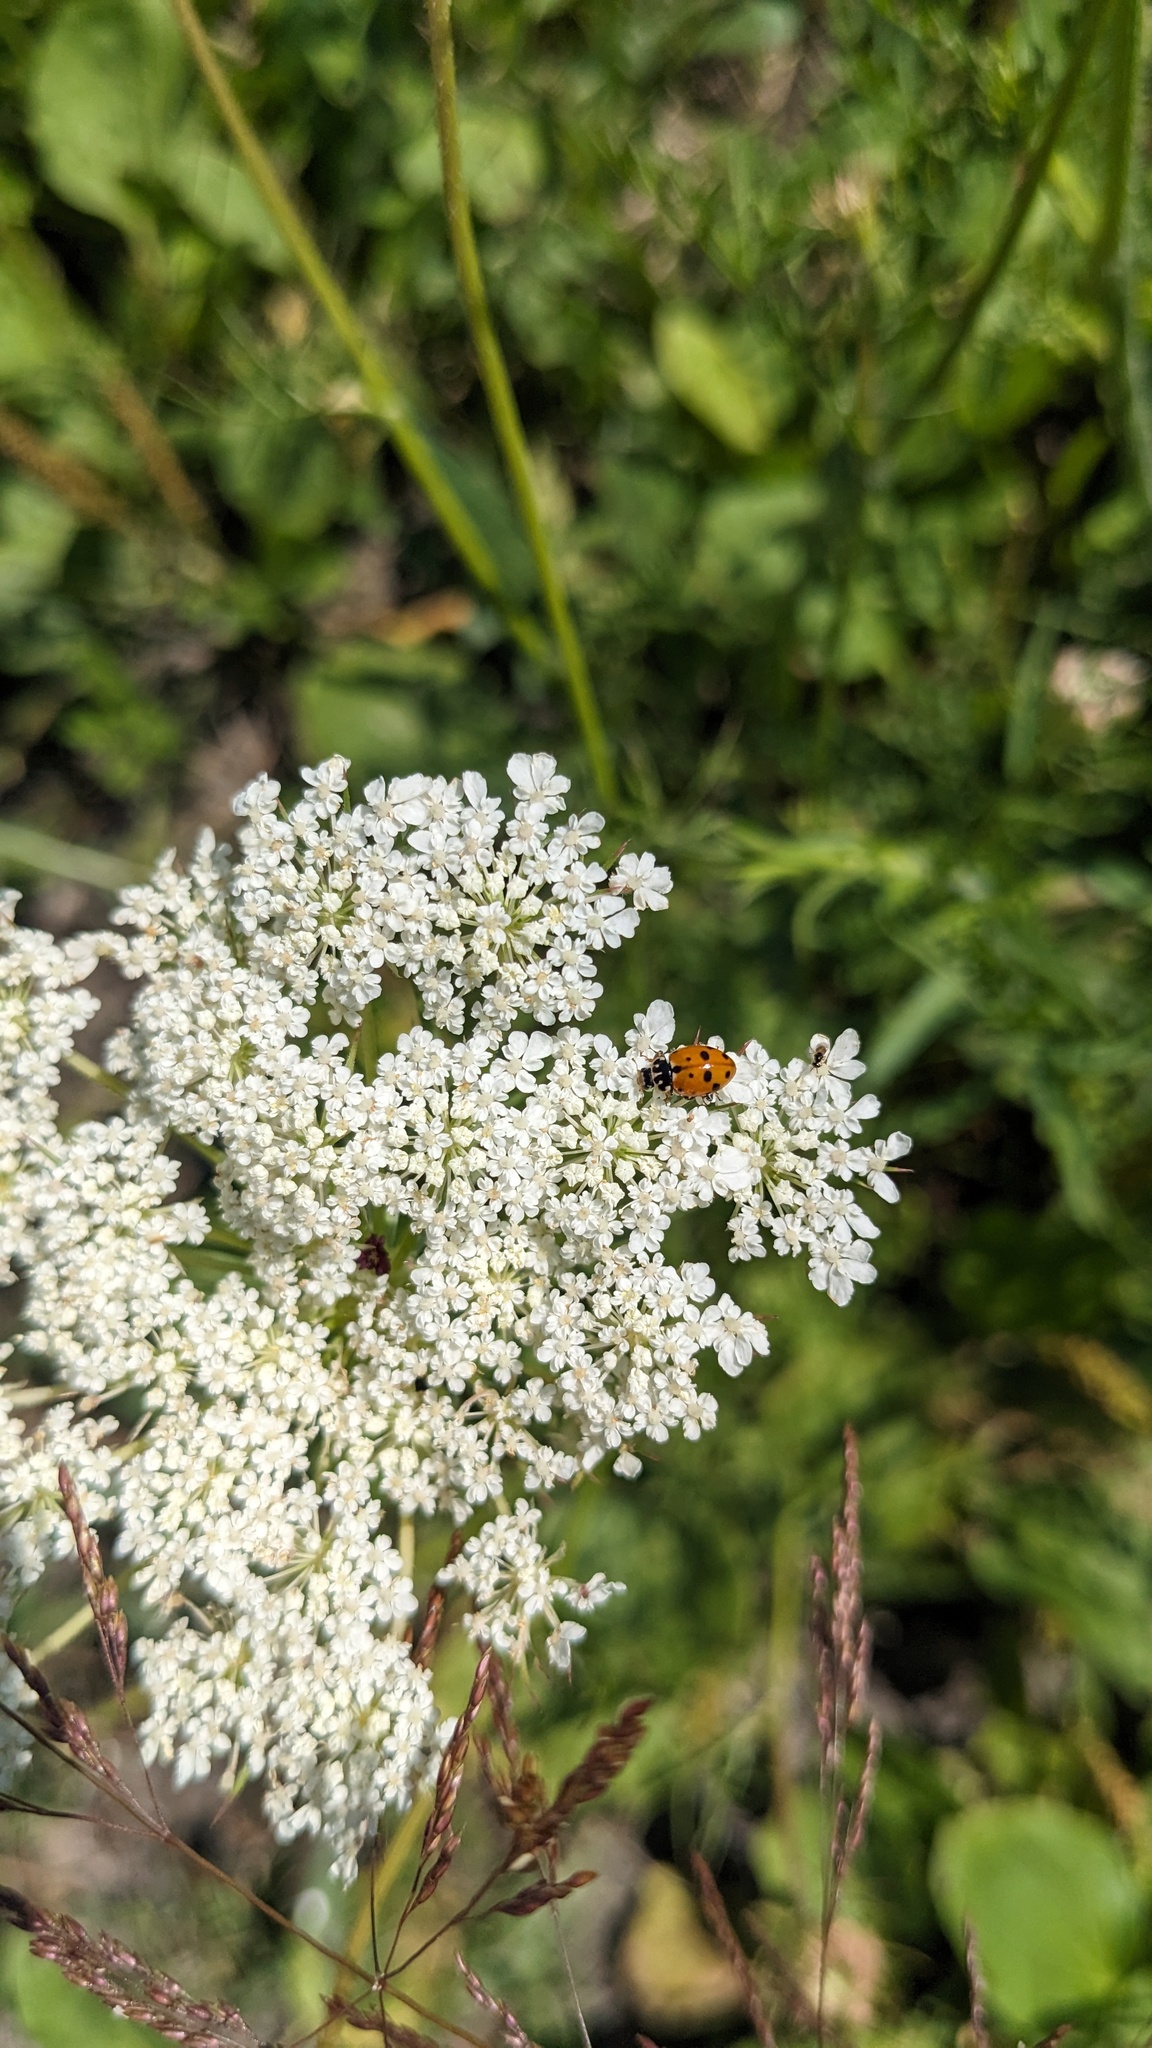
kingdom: Animalia
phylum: Arthropoda
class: Insecta
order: Coleoptera
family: Coccinellidae
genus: Hippodamia
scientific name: Hippodamia variegata
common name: Ladybird beetle
